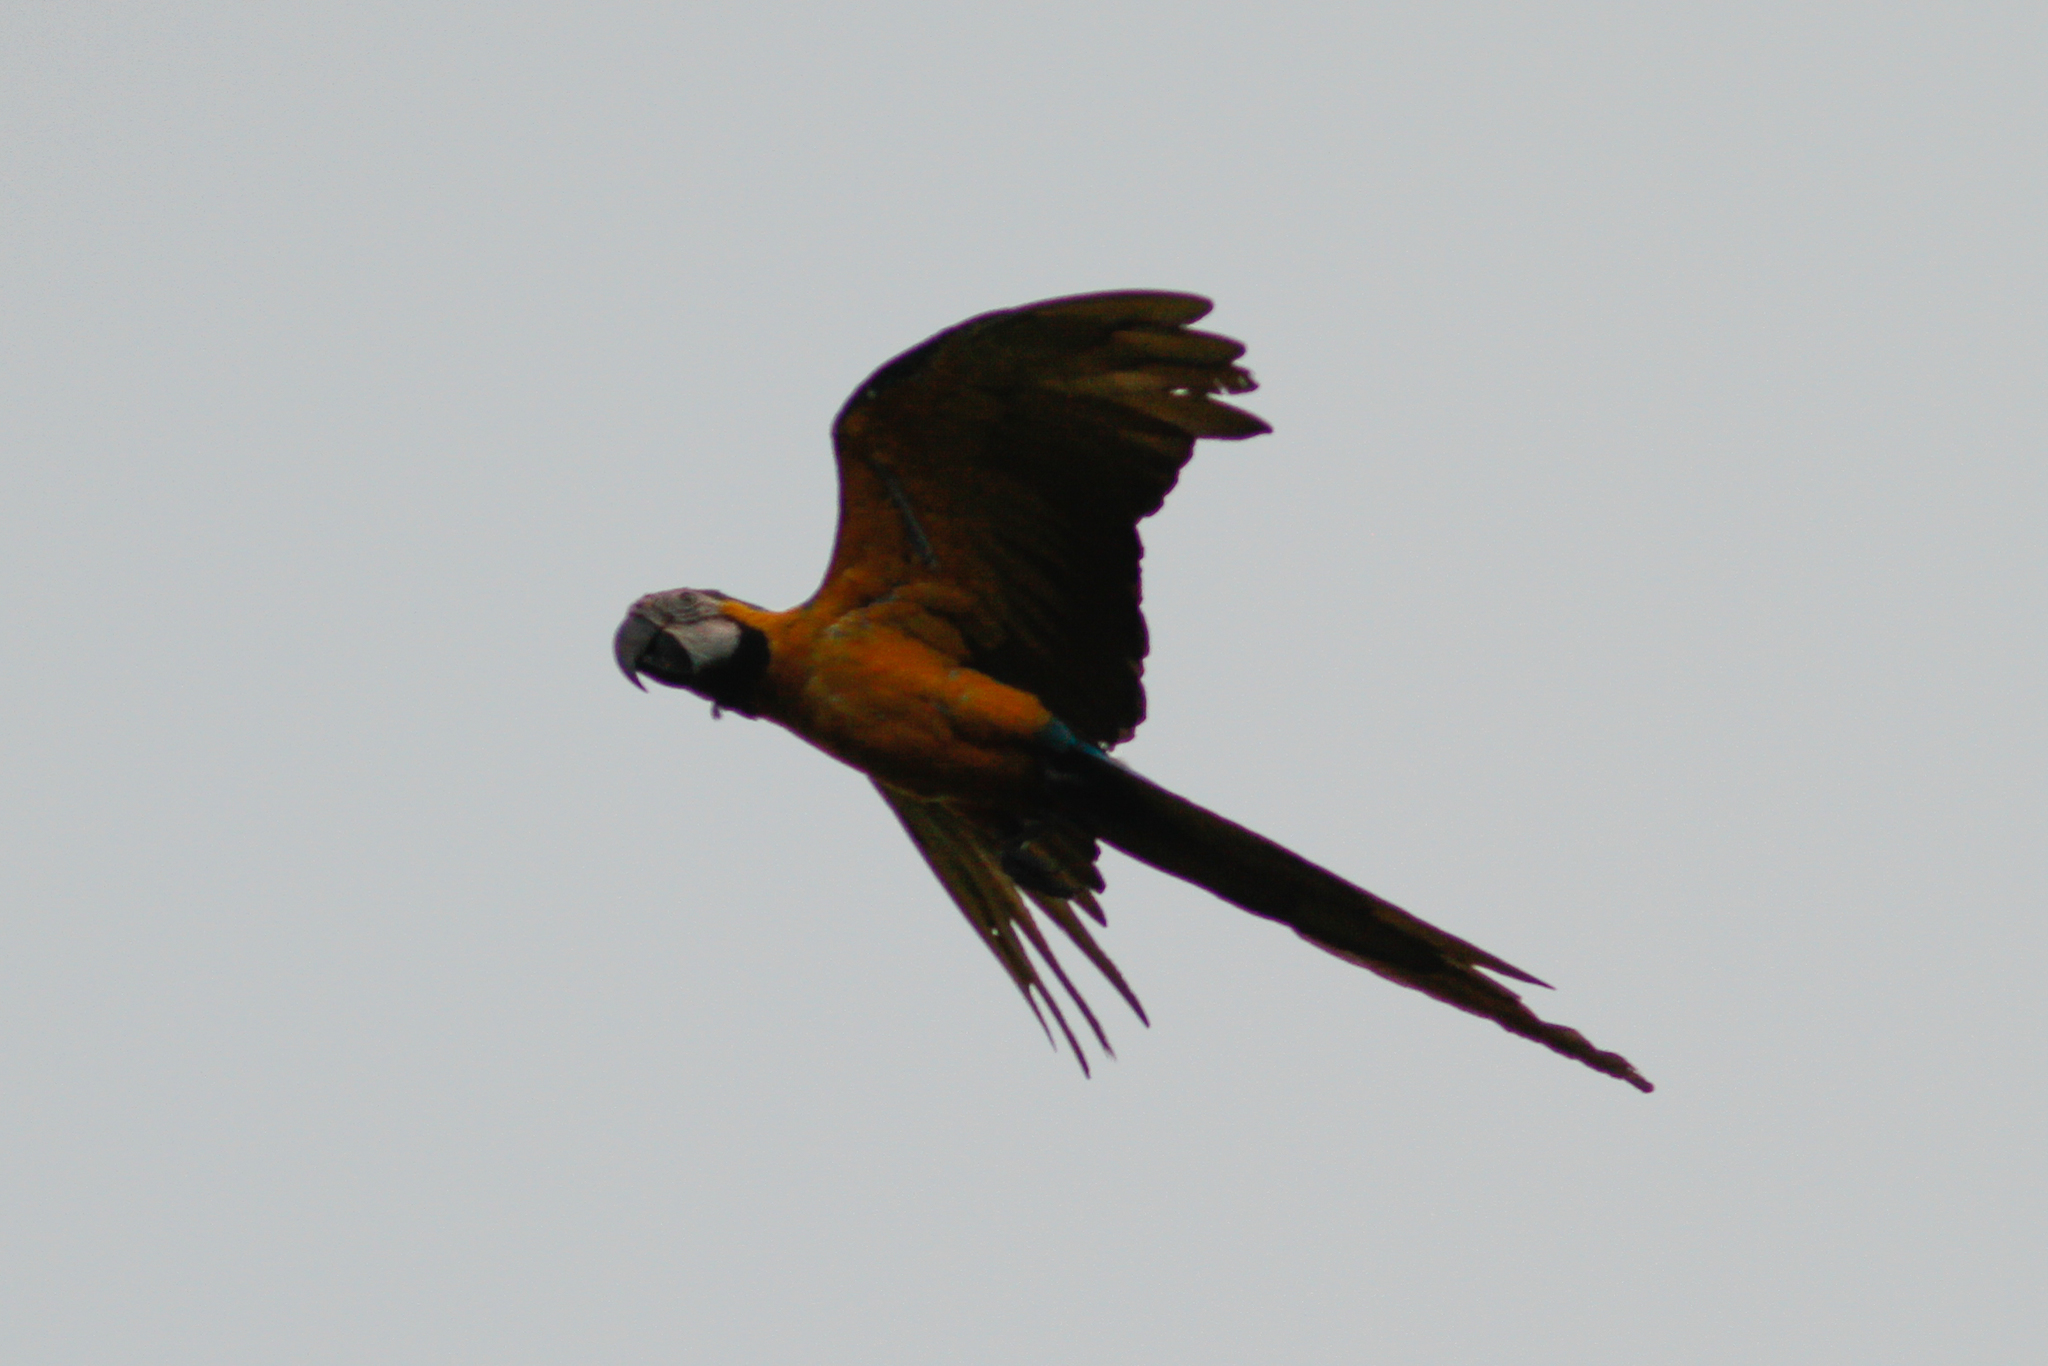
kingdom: Animalia
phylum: Chordata
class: Aves
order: Psittaciformes
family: Psittacidae
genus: Ara
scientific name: Ara ararauna
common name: Blue-and-yellow macaw
